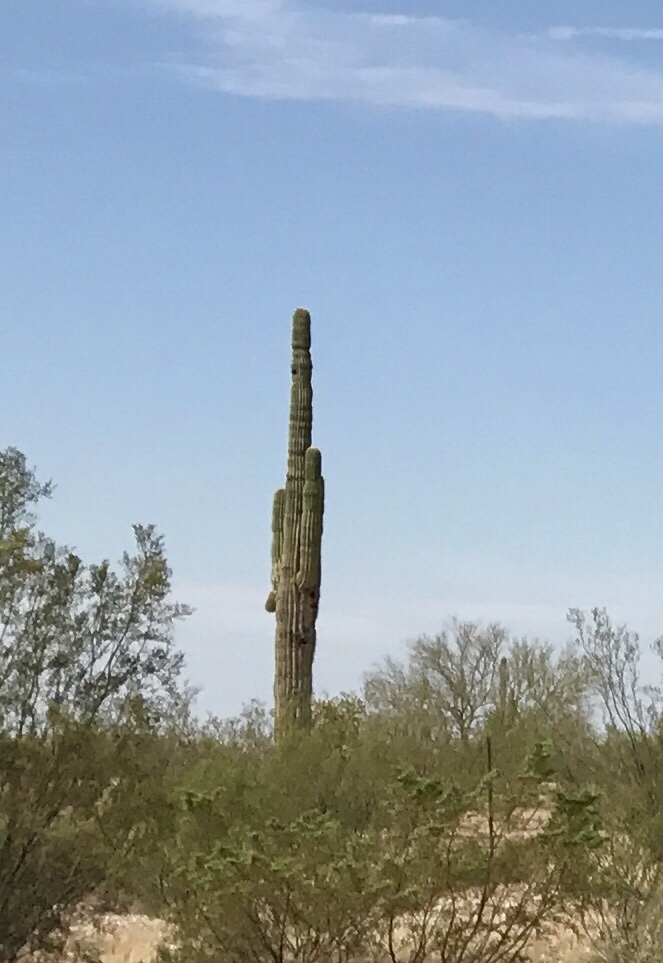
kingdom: Plantae
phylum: Tracheophyta
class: Magnoliopsida
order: Caryophyllales
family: Cactaceae
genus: Carnegiea
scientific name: Carnegiea gigantea
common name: Saguaro
